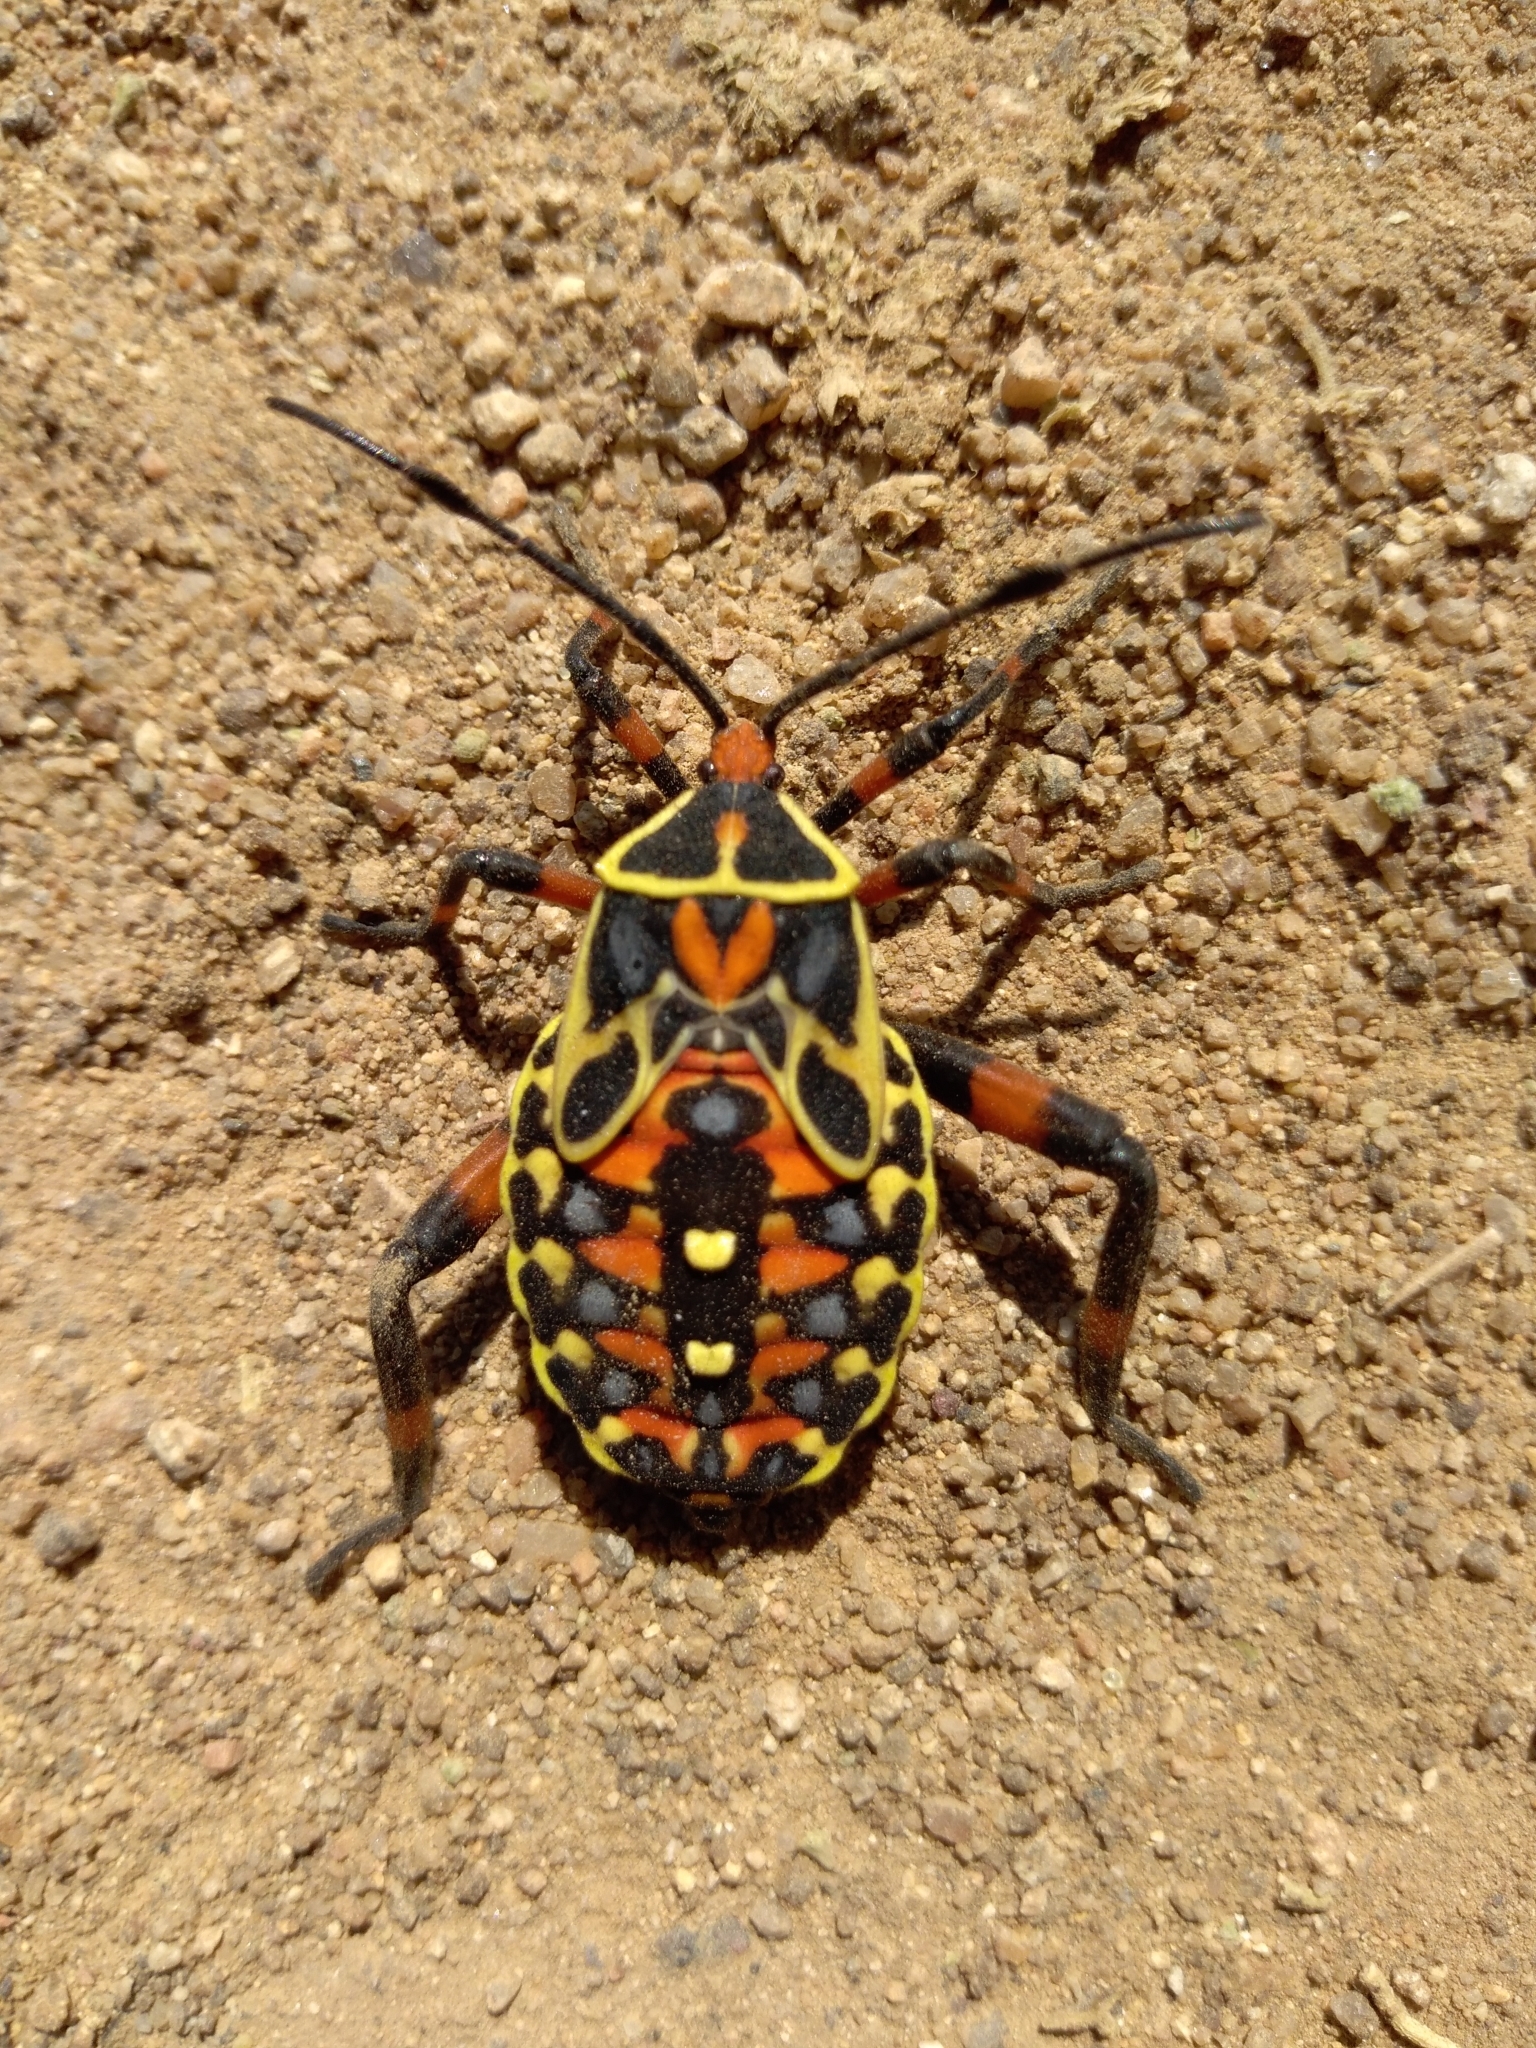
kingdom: Animalia
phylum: Arthropoda
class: Insecta
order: Hemiptera
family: Coreidae
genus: Pachylis
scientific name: Pachylis nervosus
